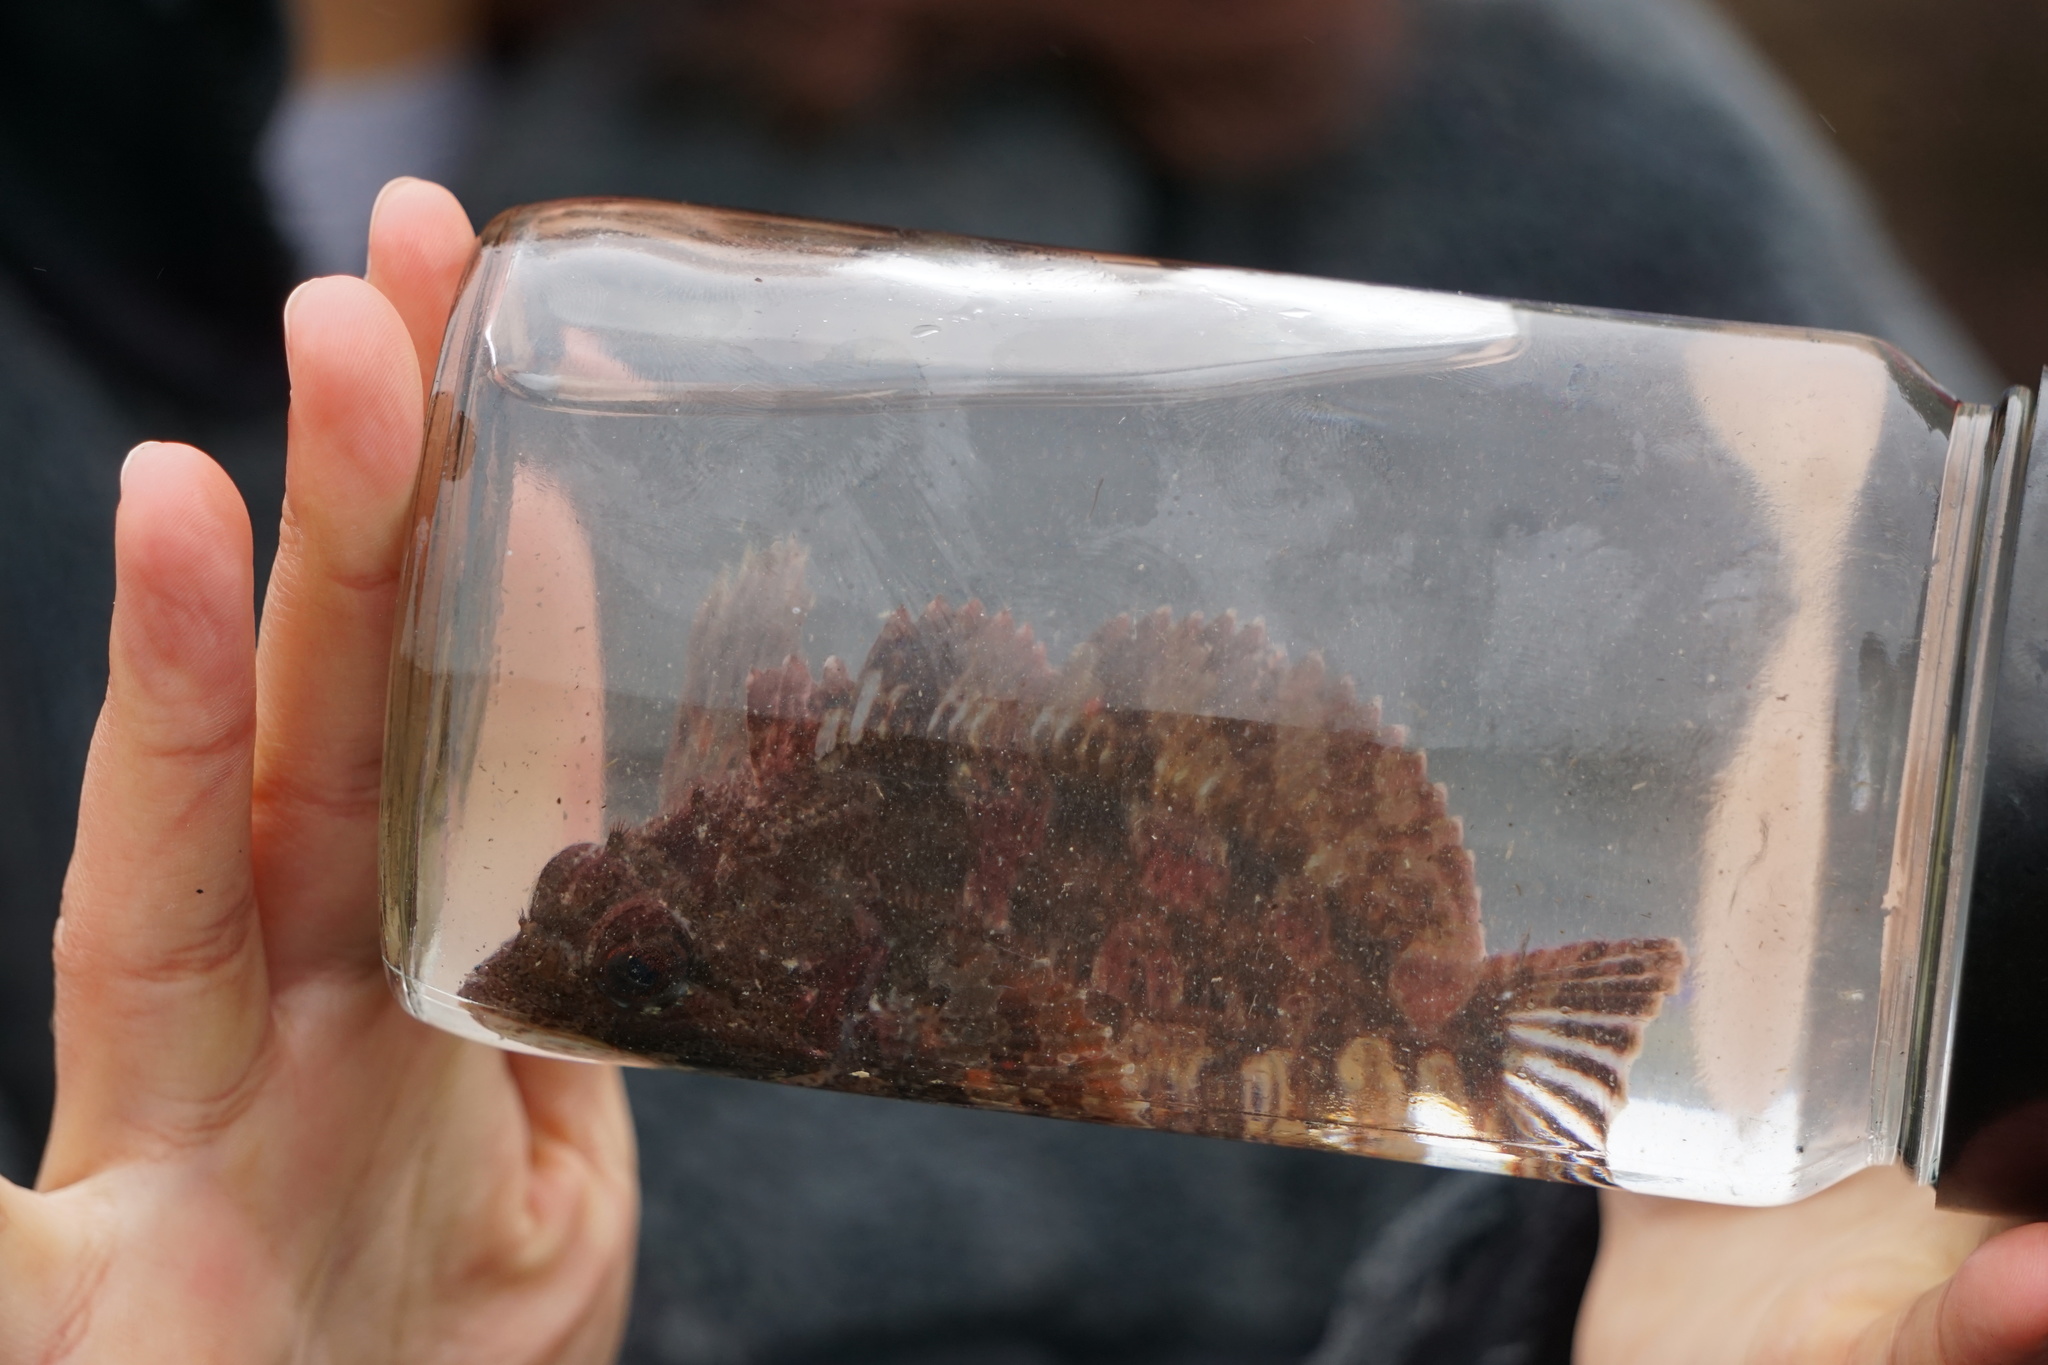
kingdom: Animalia
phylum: Chordata
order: Scorpaeniformes
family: Cottidae
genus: Hemilepidotus
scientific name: Hemilepidotus hemilepidotus
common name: Red irish lord
